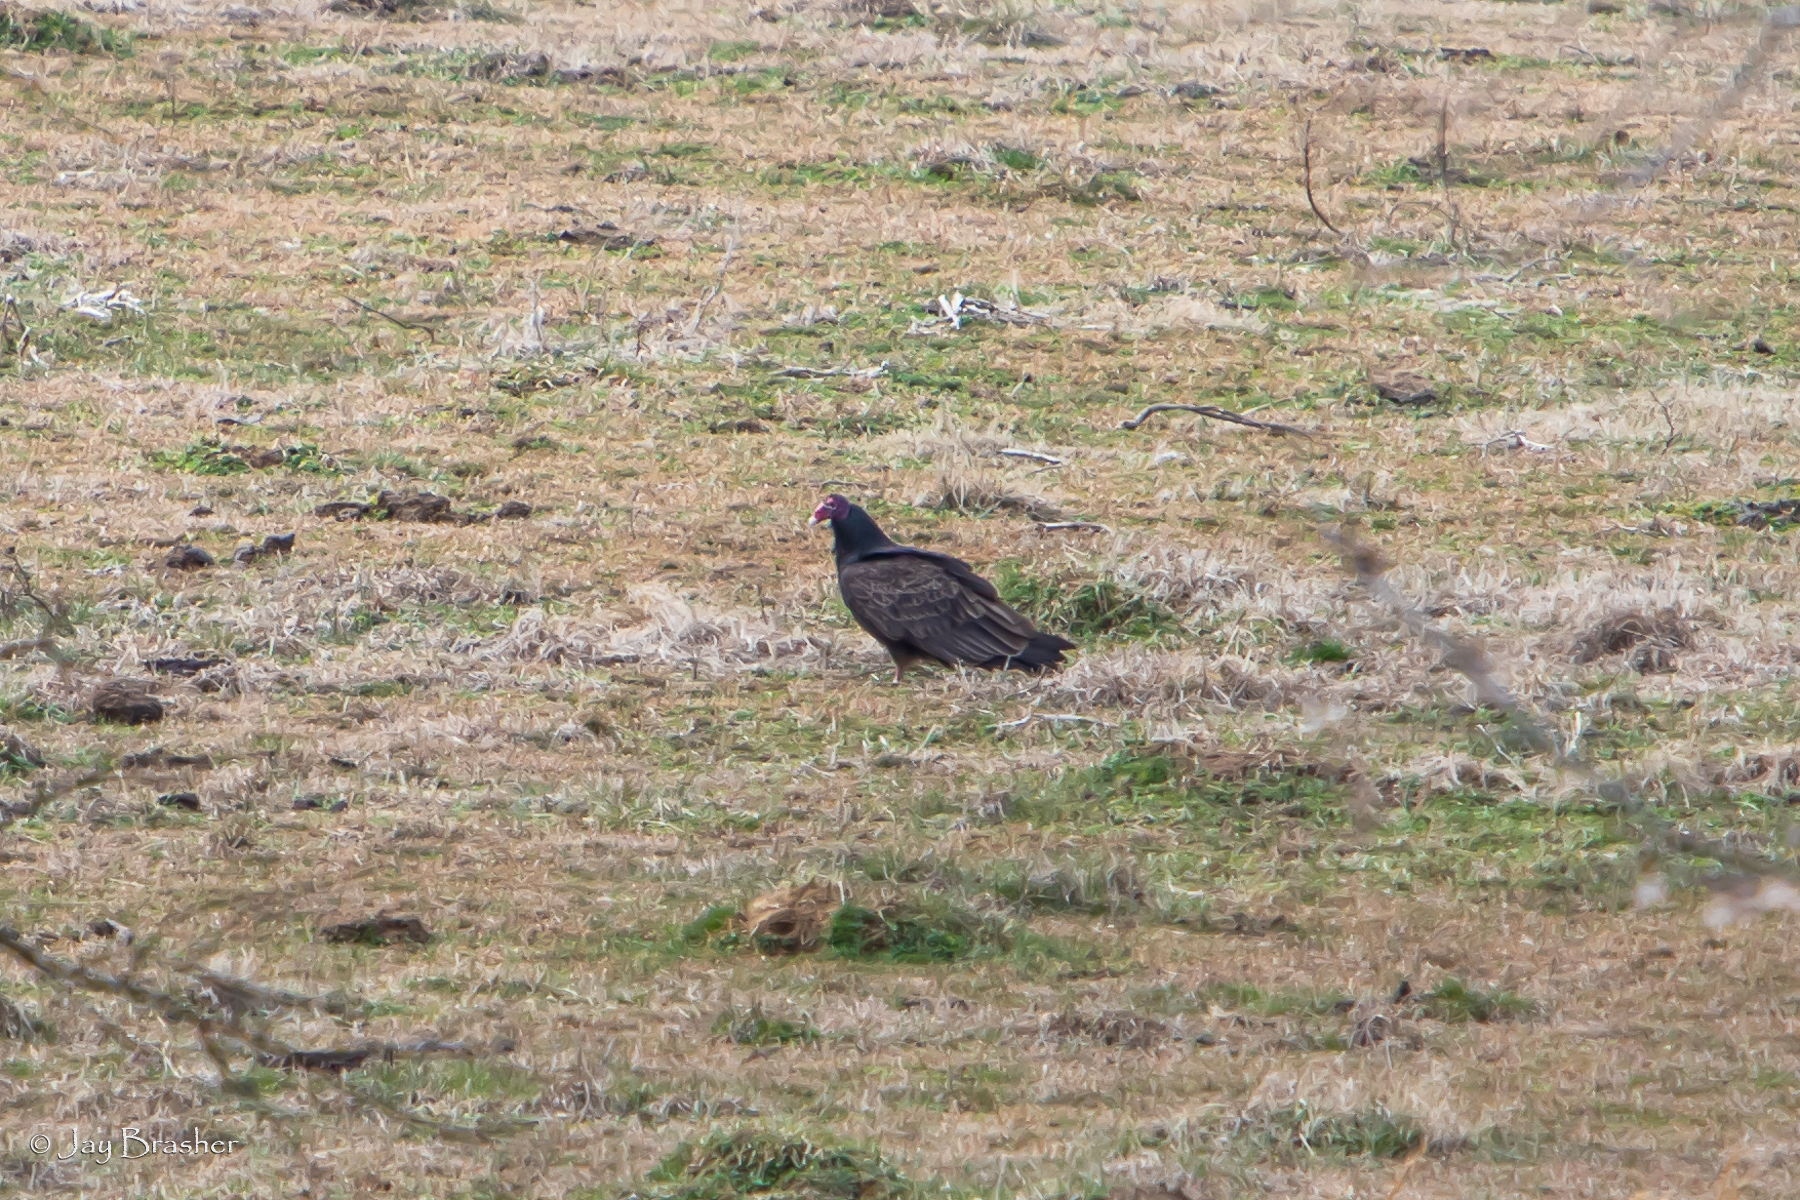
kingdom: Animalia
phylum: Chordata
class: Aves
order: Accipitriformes
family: Cathartidae
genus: Cathartes
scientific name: Cathartes aura
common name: Turkey vulture
